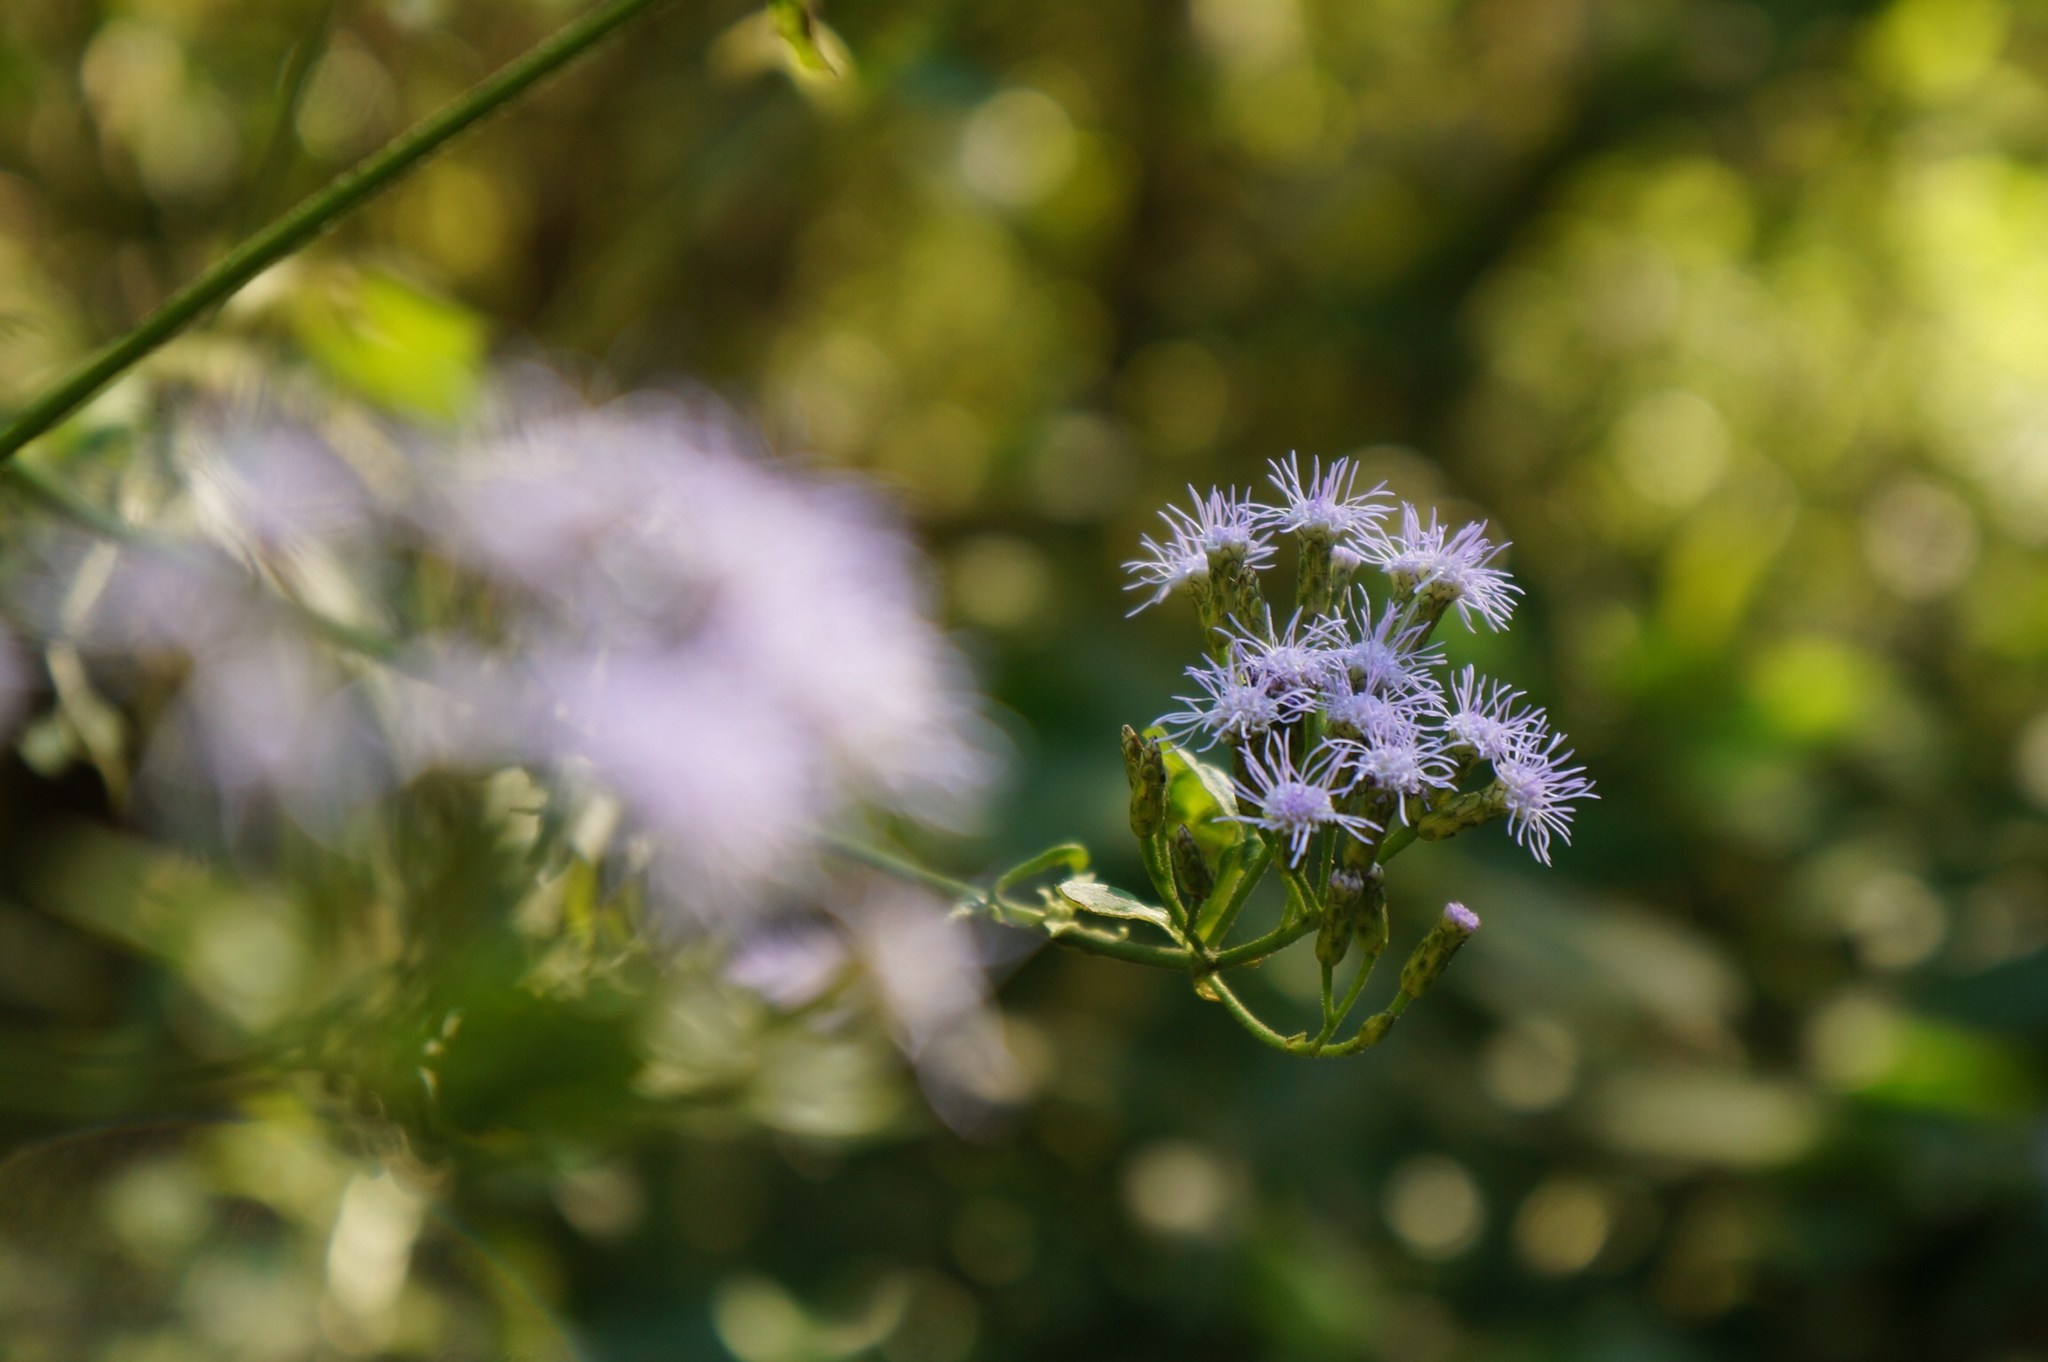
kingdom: Plantae
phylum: Tracheophyta
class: Magnoliopsida
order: Asterales
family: Asteraceae
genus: Chromolaena
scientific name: Chromolaena odorata
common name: Siamweed
